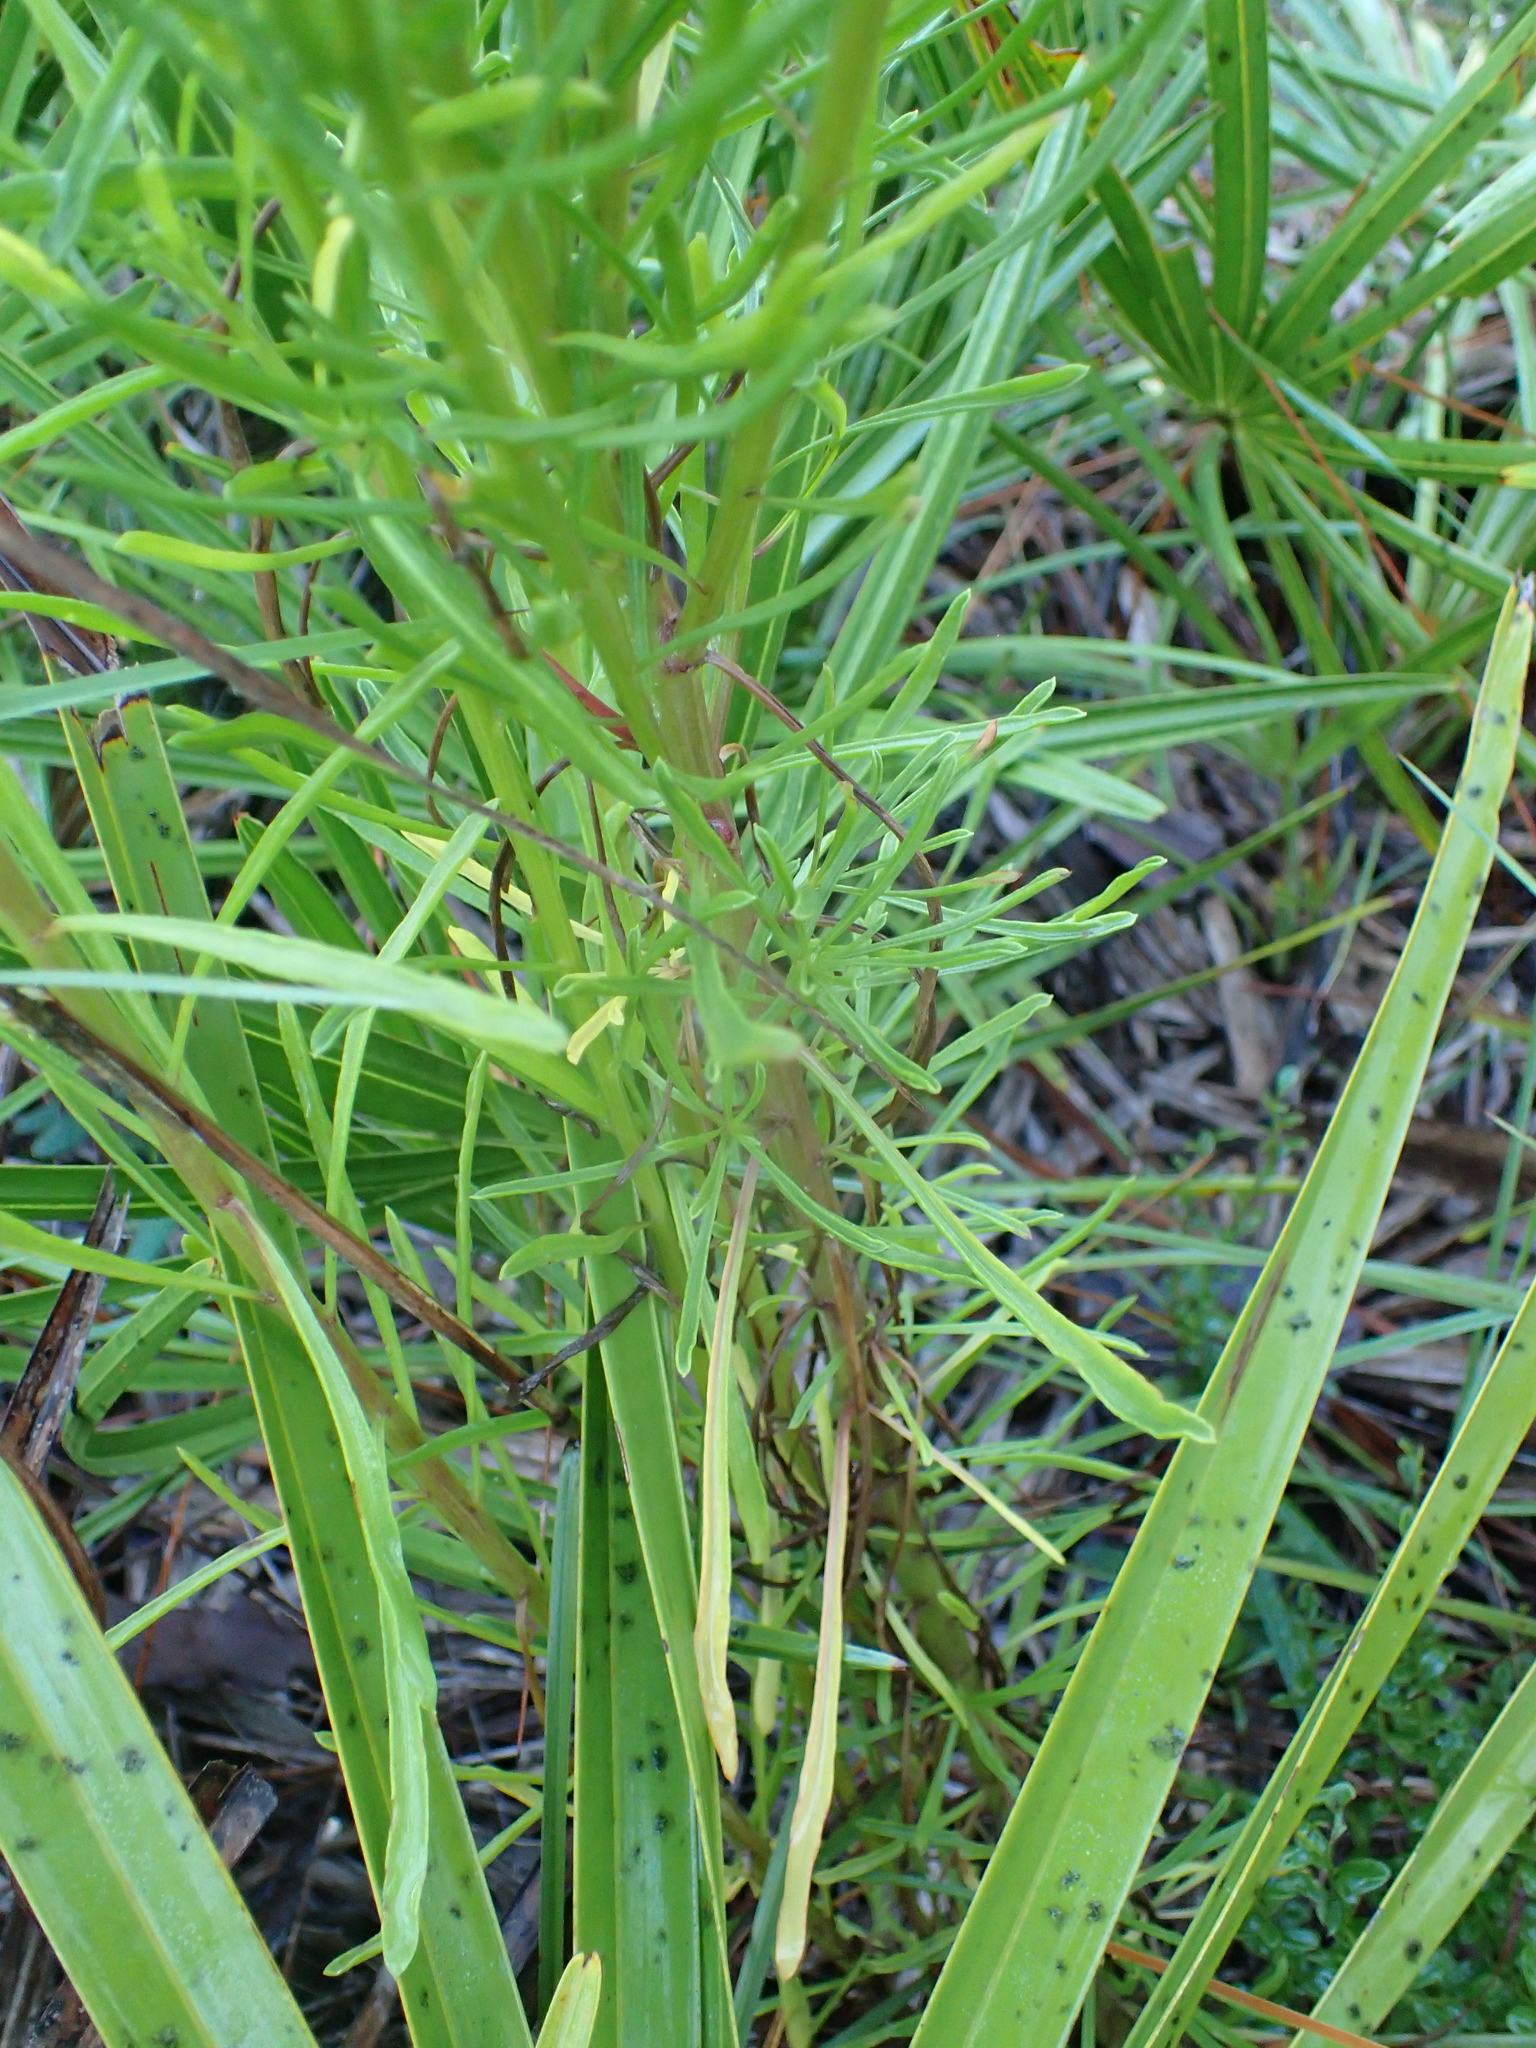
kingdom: Plantae
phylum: Tracheophyta
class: Magnoliopsida
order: Asterales
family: Asteraceae
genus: Balduina
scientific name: Balduina angustifolia
